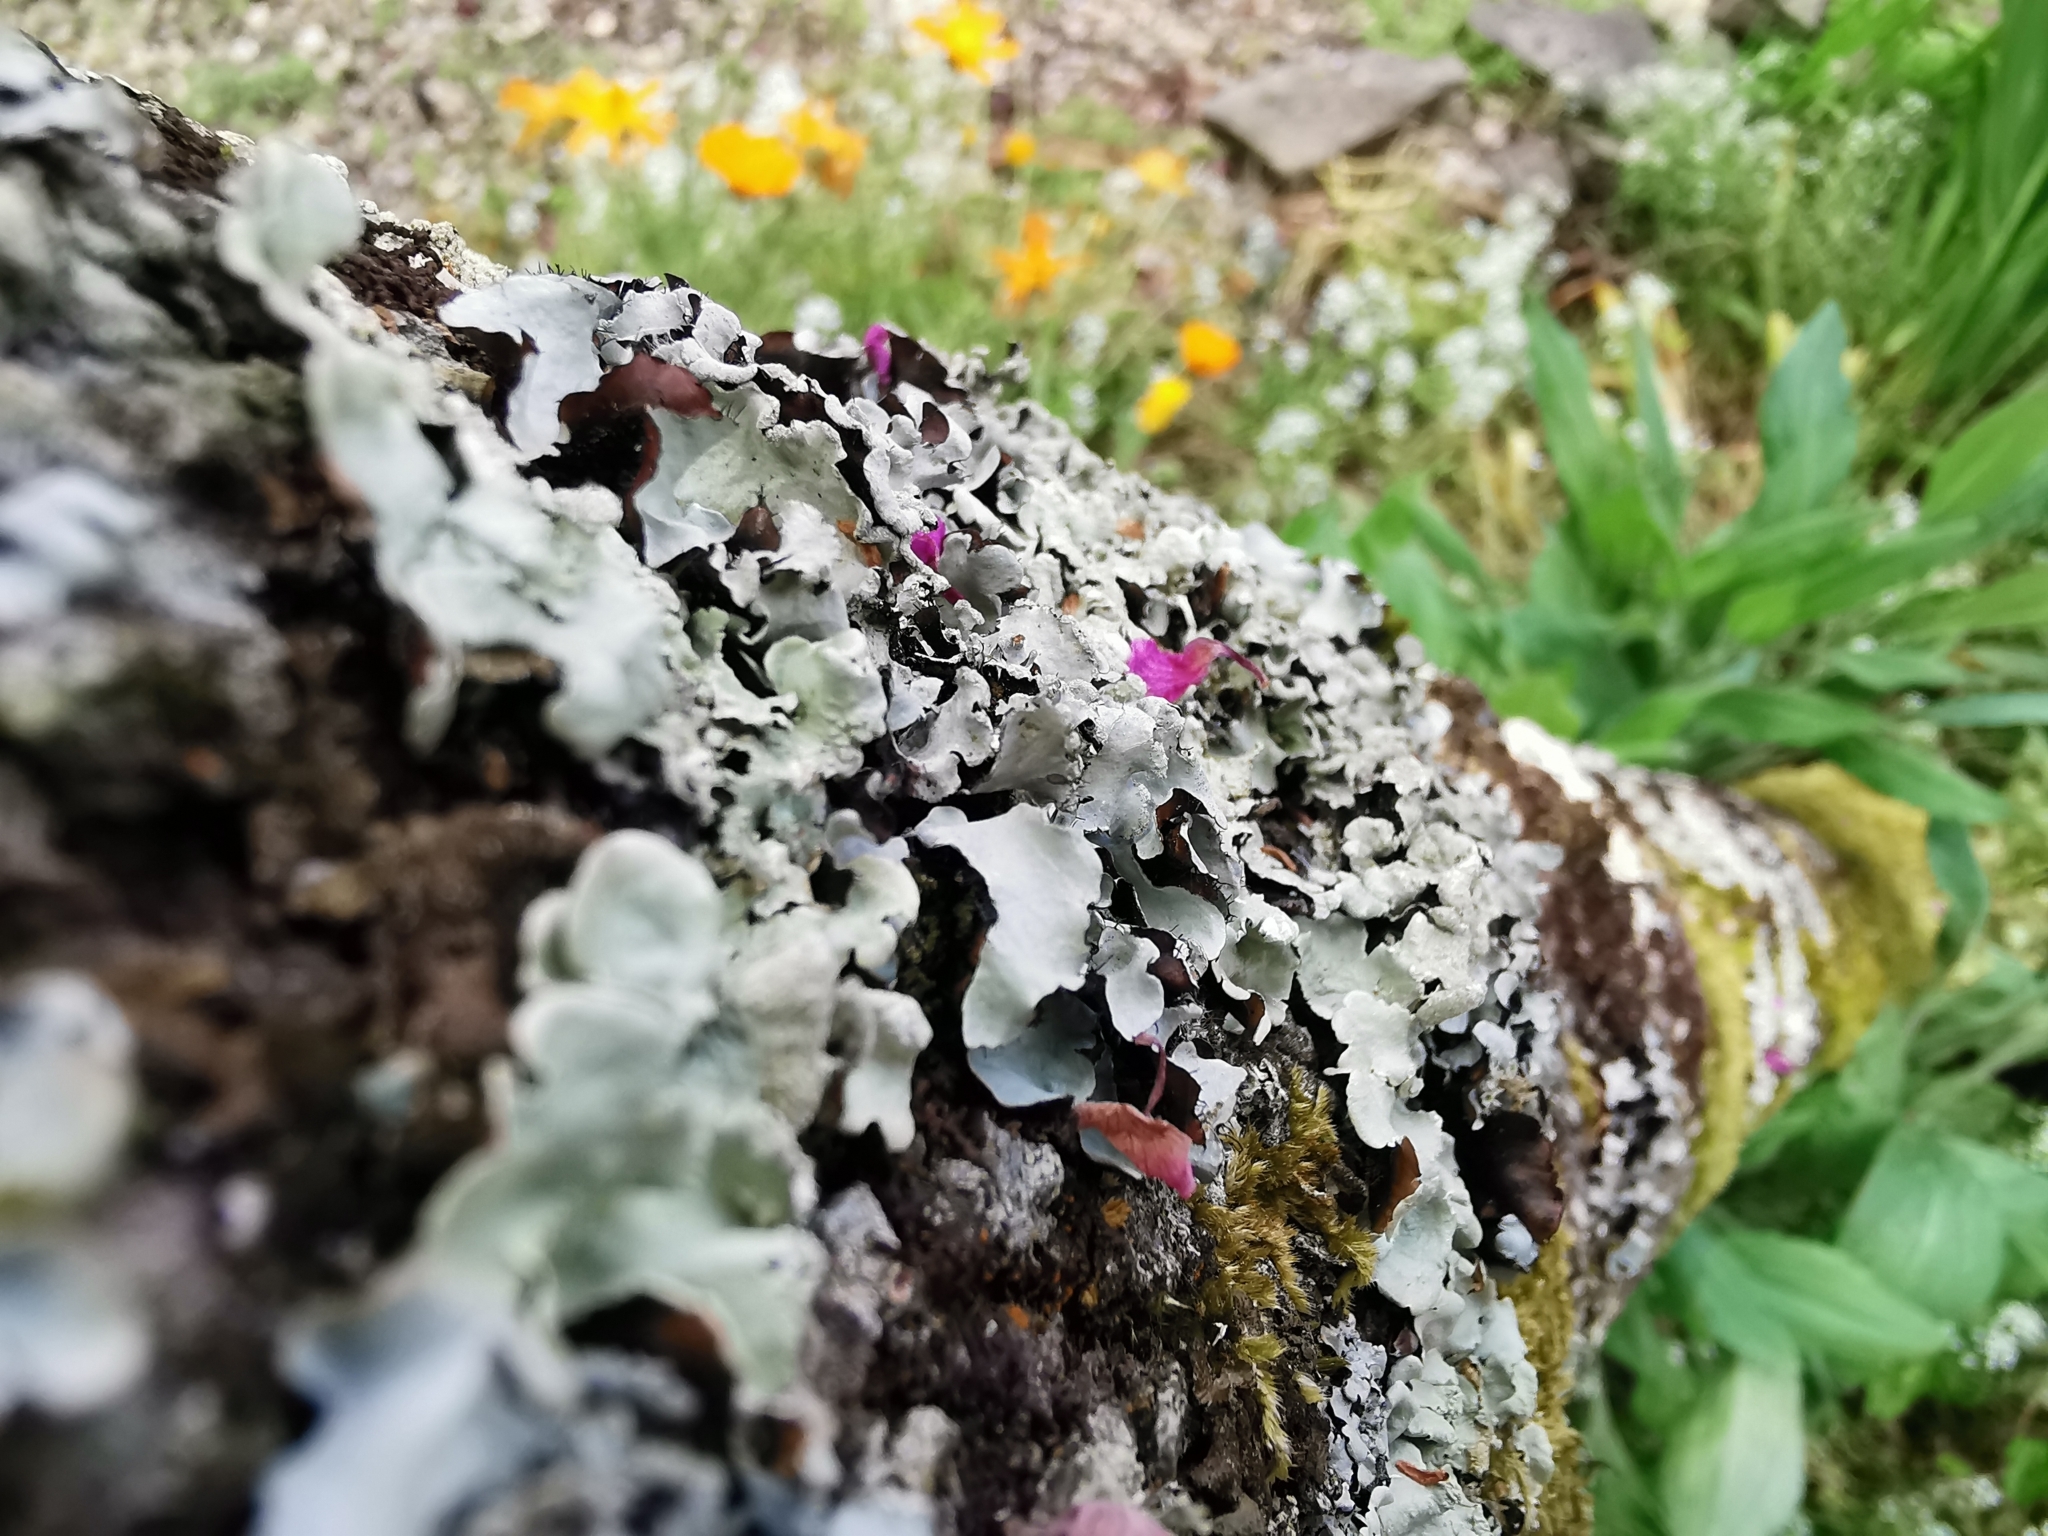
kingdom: Fungi
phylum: Ascomycota
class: Lecanoromycetes
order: Lecanorales
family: Parmeliaceae
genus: Flavoparmelia
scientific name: Flavoparmelia caperata
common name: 40-mile per hour lichen
